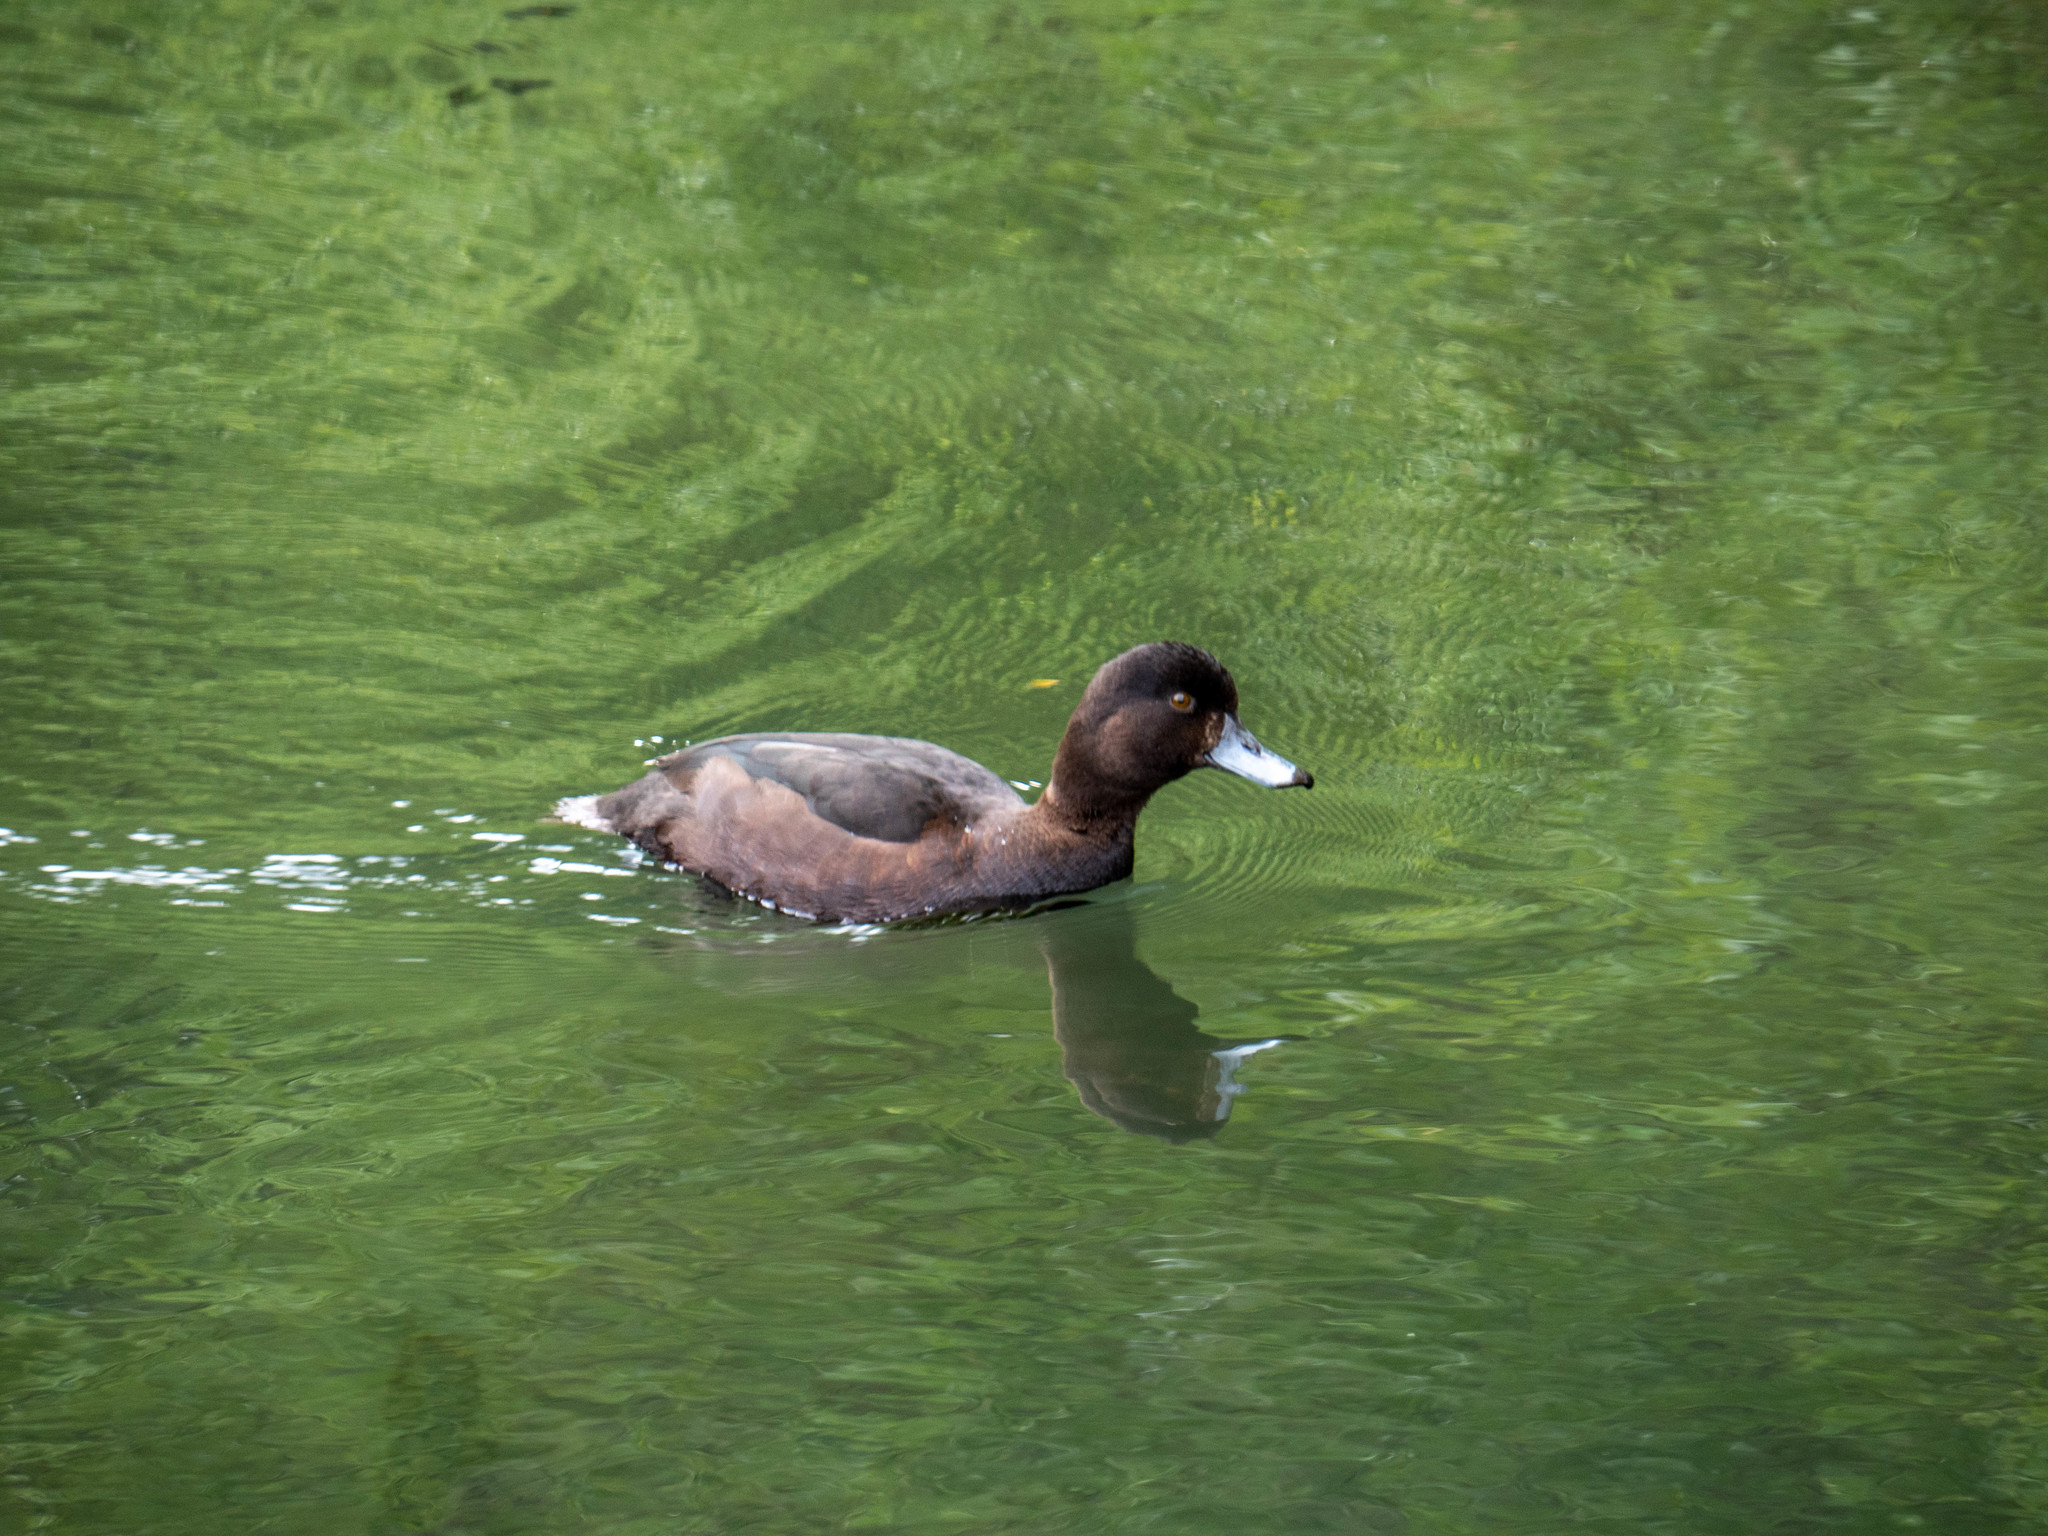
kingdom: Animalia
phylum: Chordata
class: Aves
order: Anseriformes
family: Anatidae
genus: Aythya
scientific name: Aythya novaeseelandiae
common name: New zealand scaup
